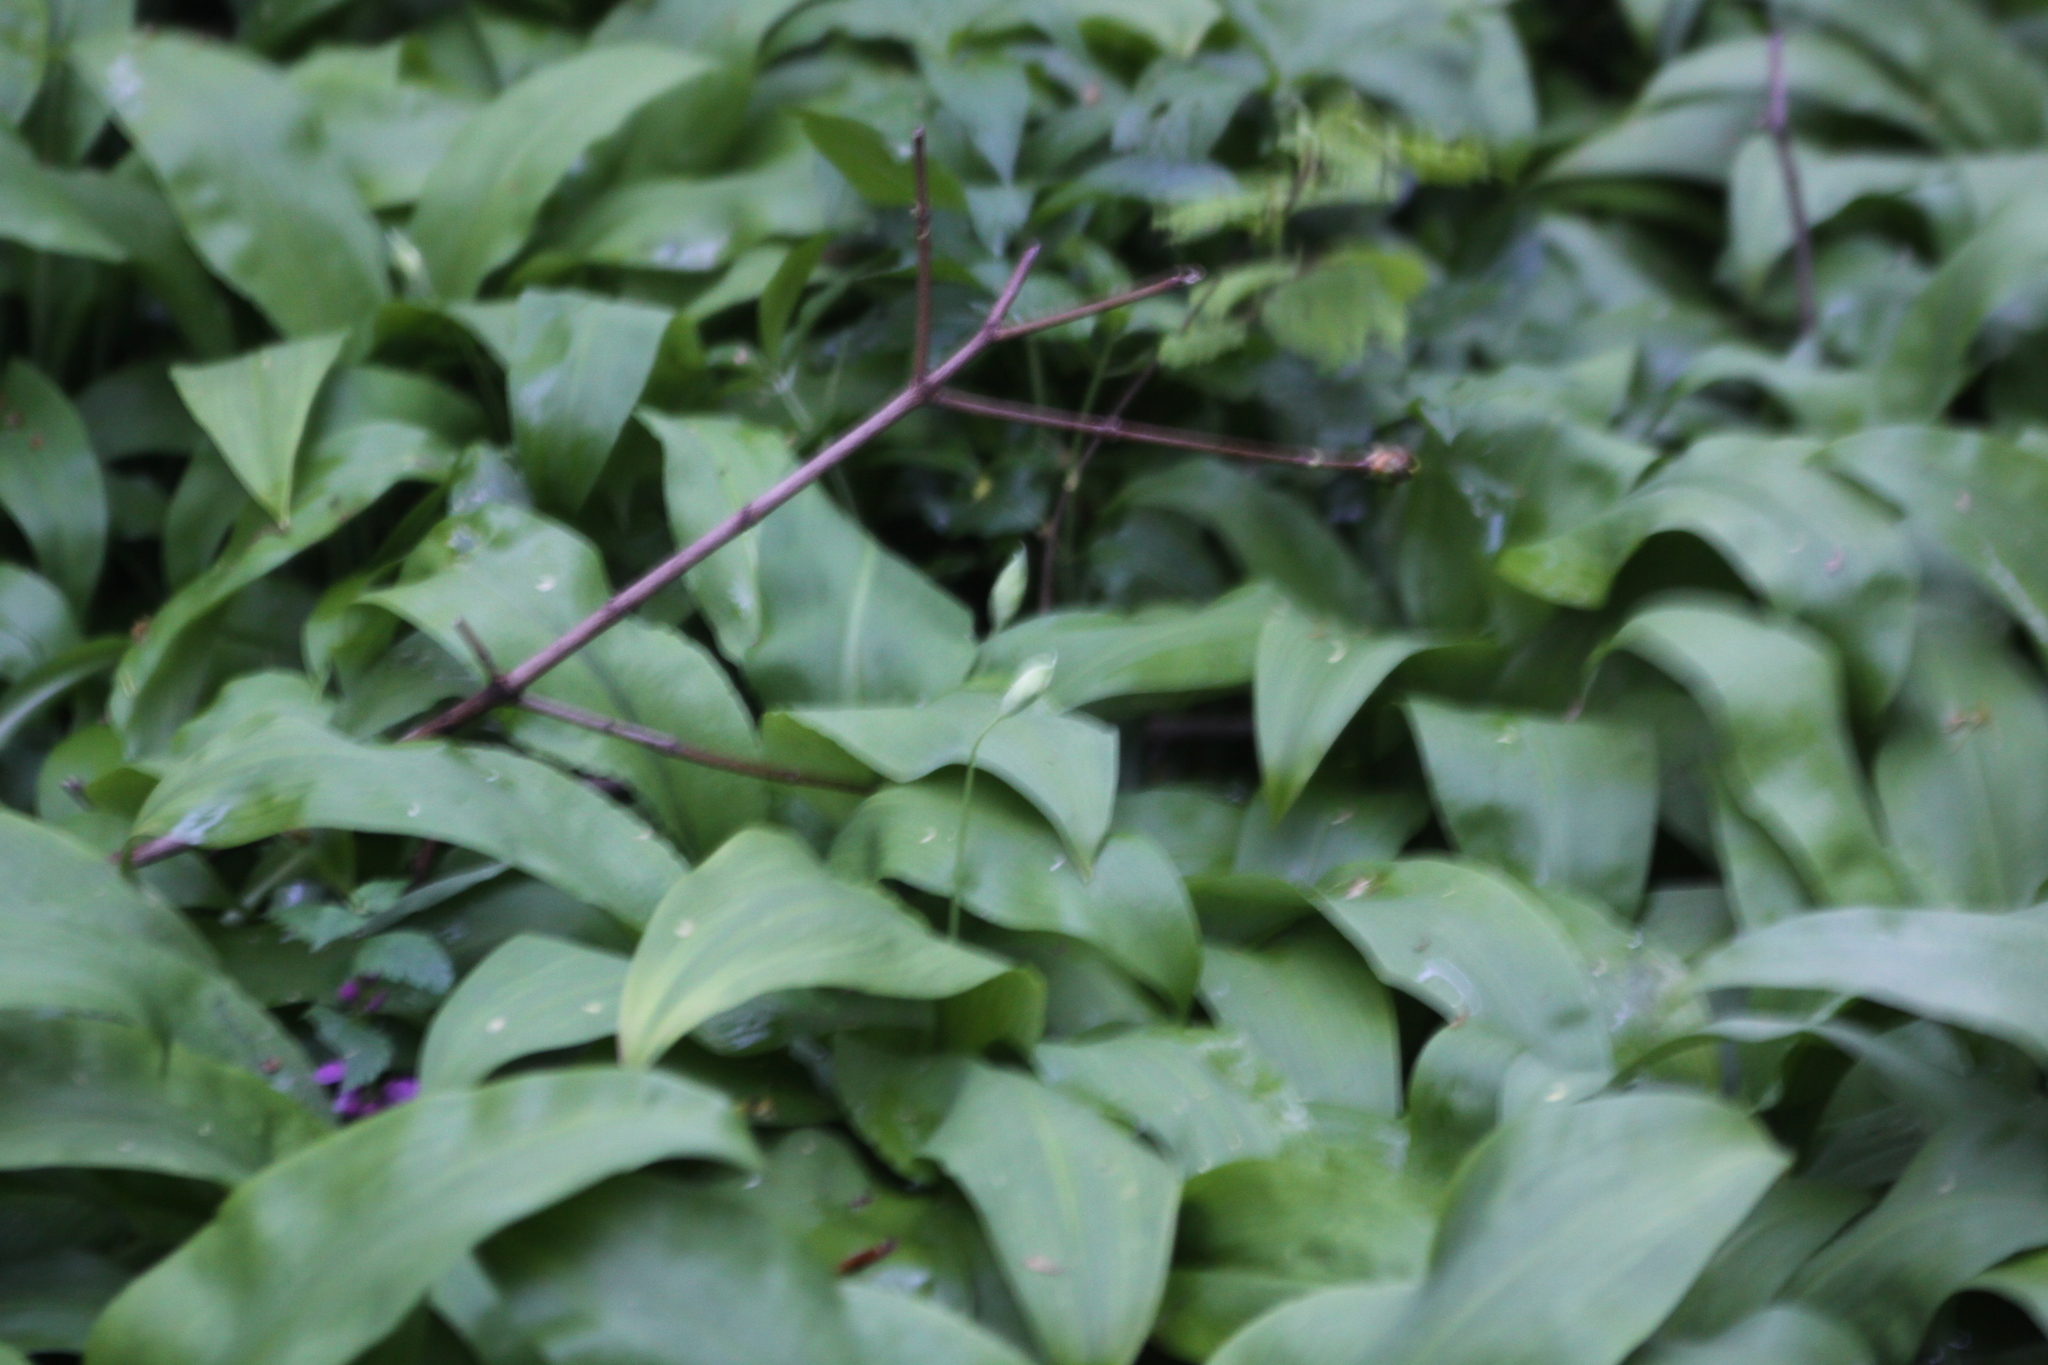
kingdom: Plantae
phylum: Tracheophyta
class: Liliopsida
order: Asparagales
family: Amaryllidaceae
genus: Allium
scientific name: Allium ursinum
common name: Ramsons
